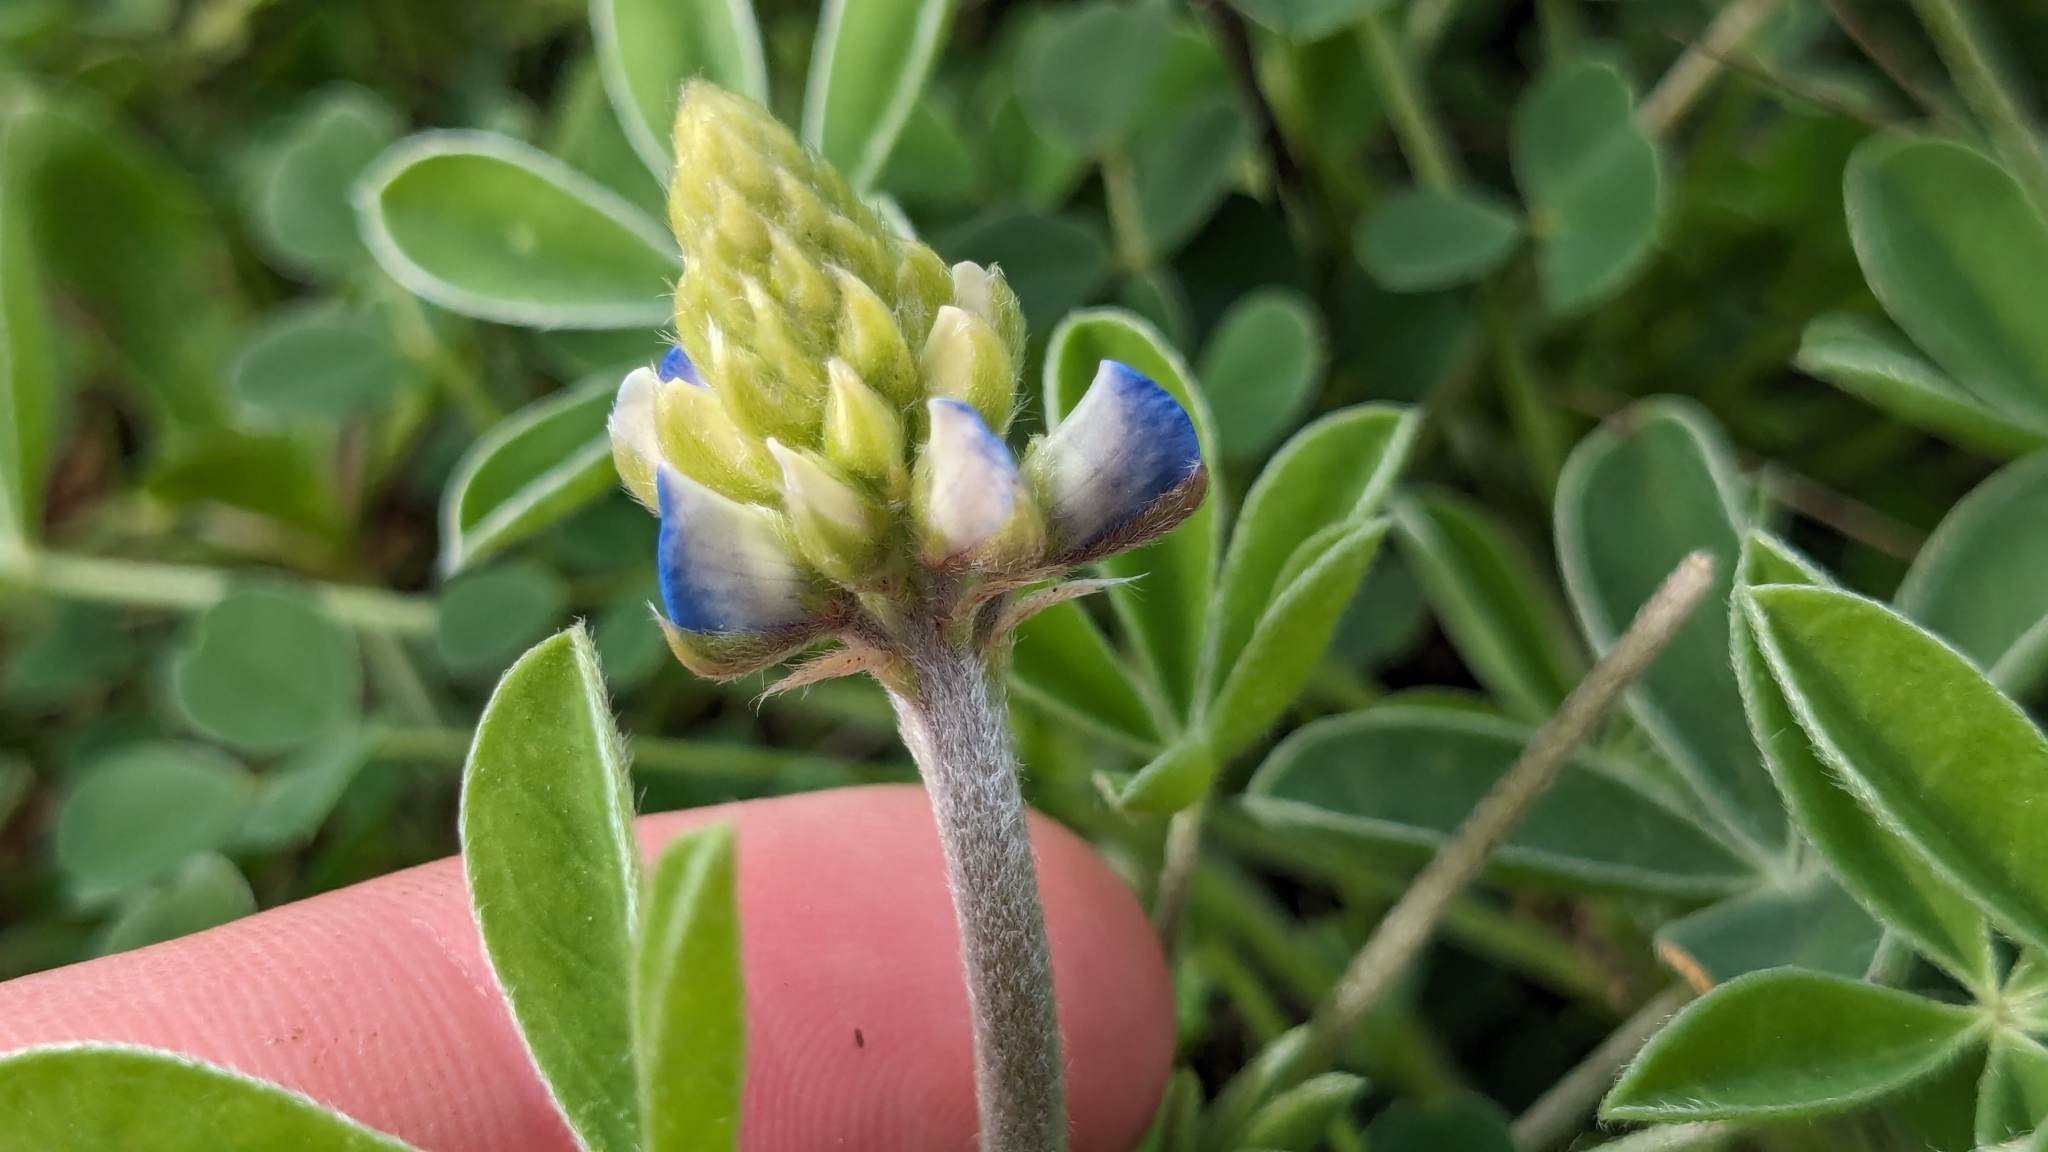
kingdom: Plantae
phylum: Tracheophyta
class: Magnoliopsida
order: Fabales
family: Fabaceae
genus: Lupinus
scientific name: Lupinus texensis
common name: Texas bluebonnet
